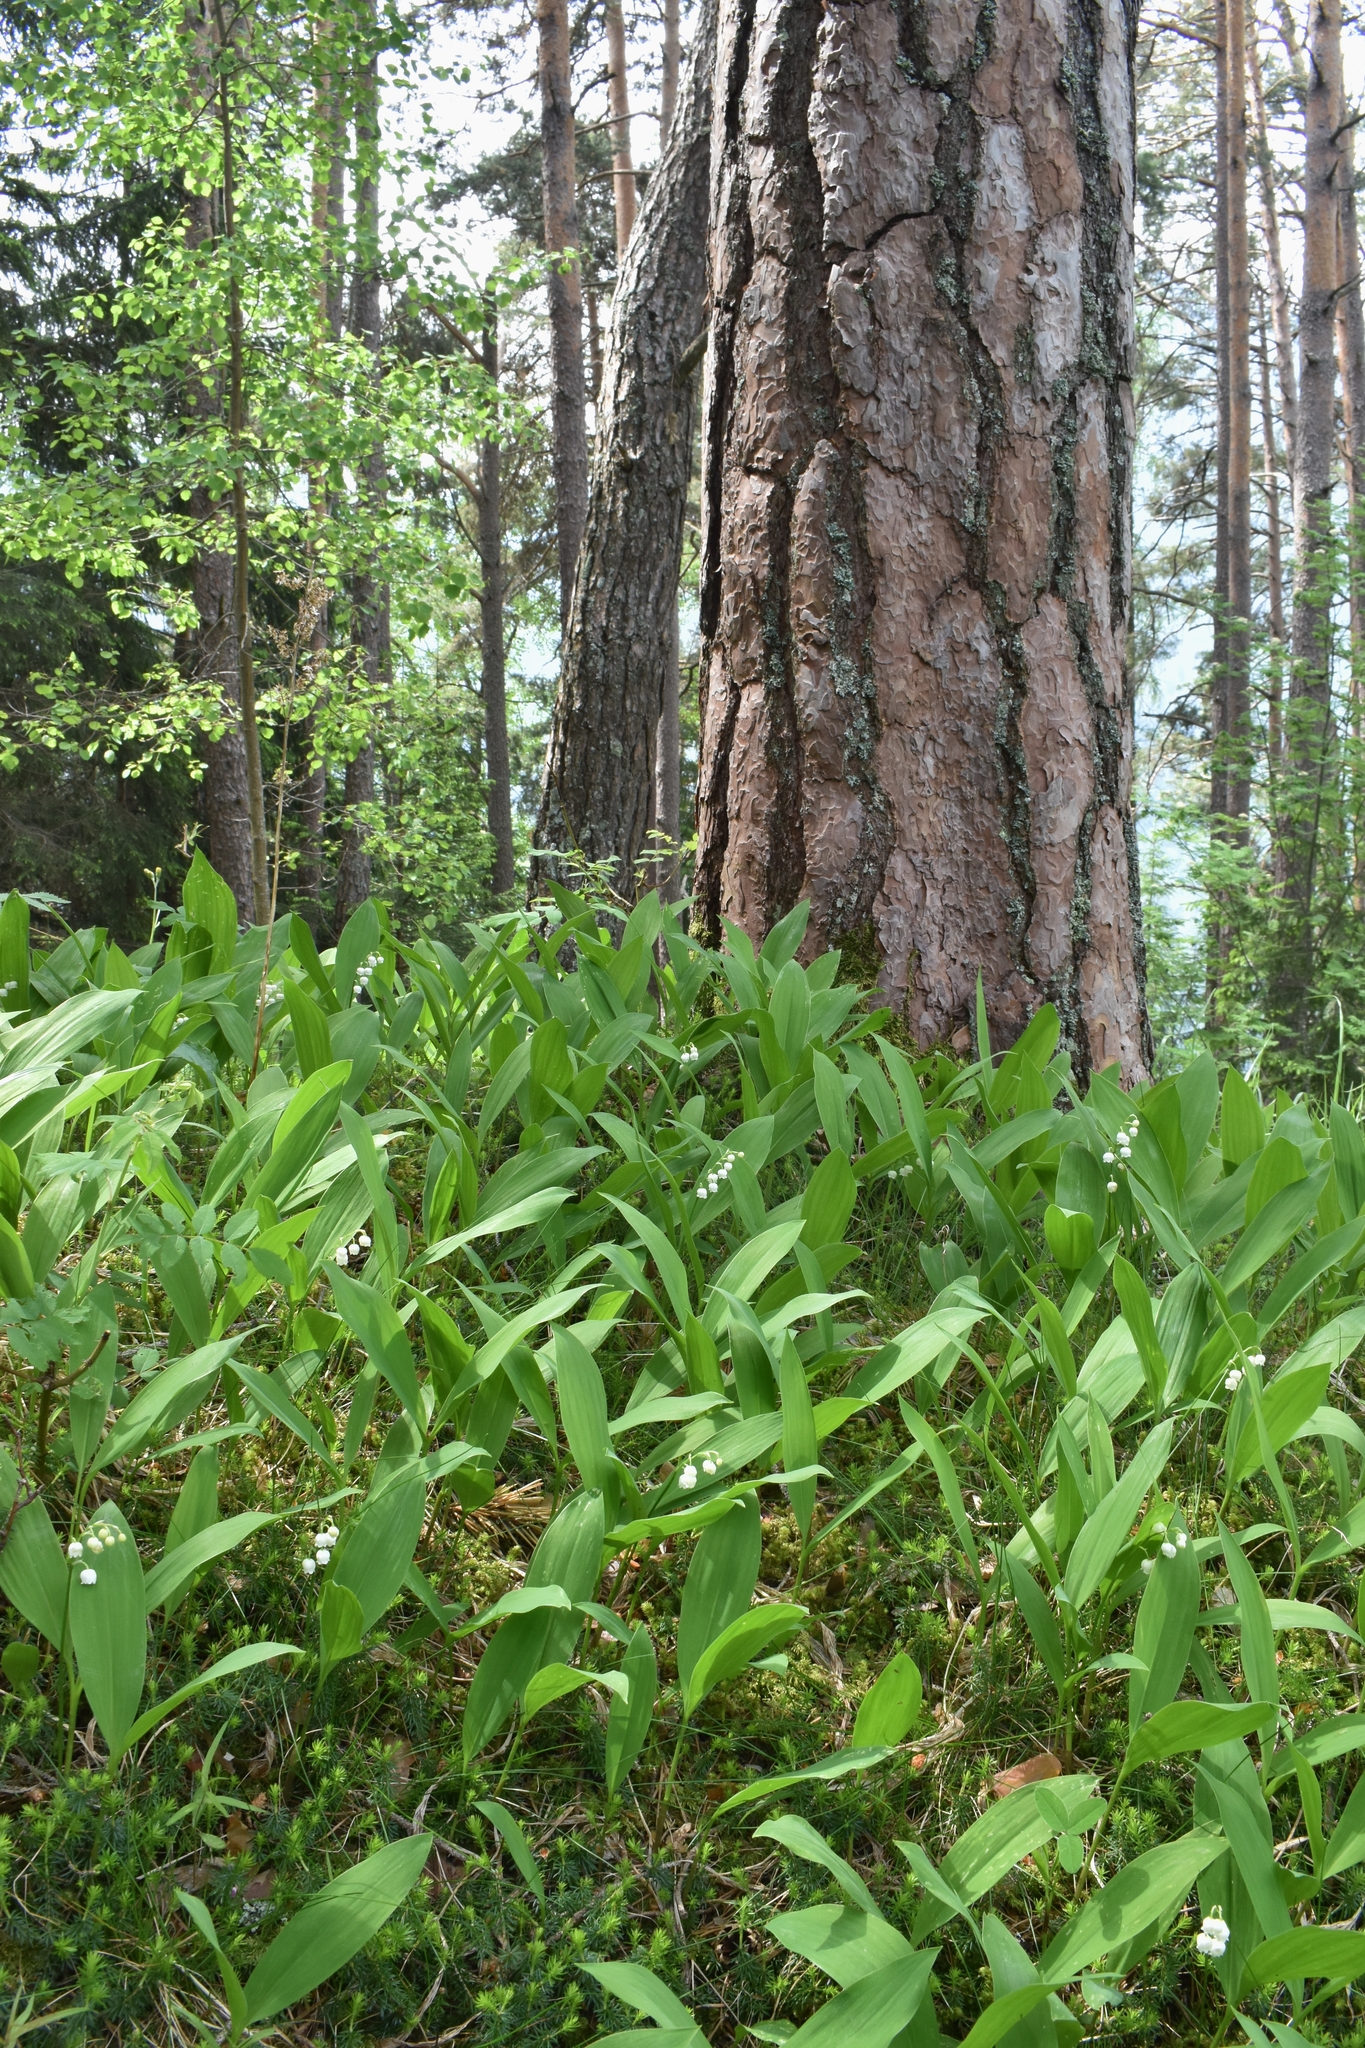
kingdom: Plantae
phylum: Tracheophyta
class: Liliopsida
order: Asparagales
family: Asparagaceae
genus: Convallaria
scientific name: Convallaria majalis
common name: Lily-of-the-valley
